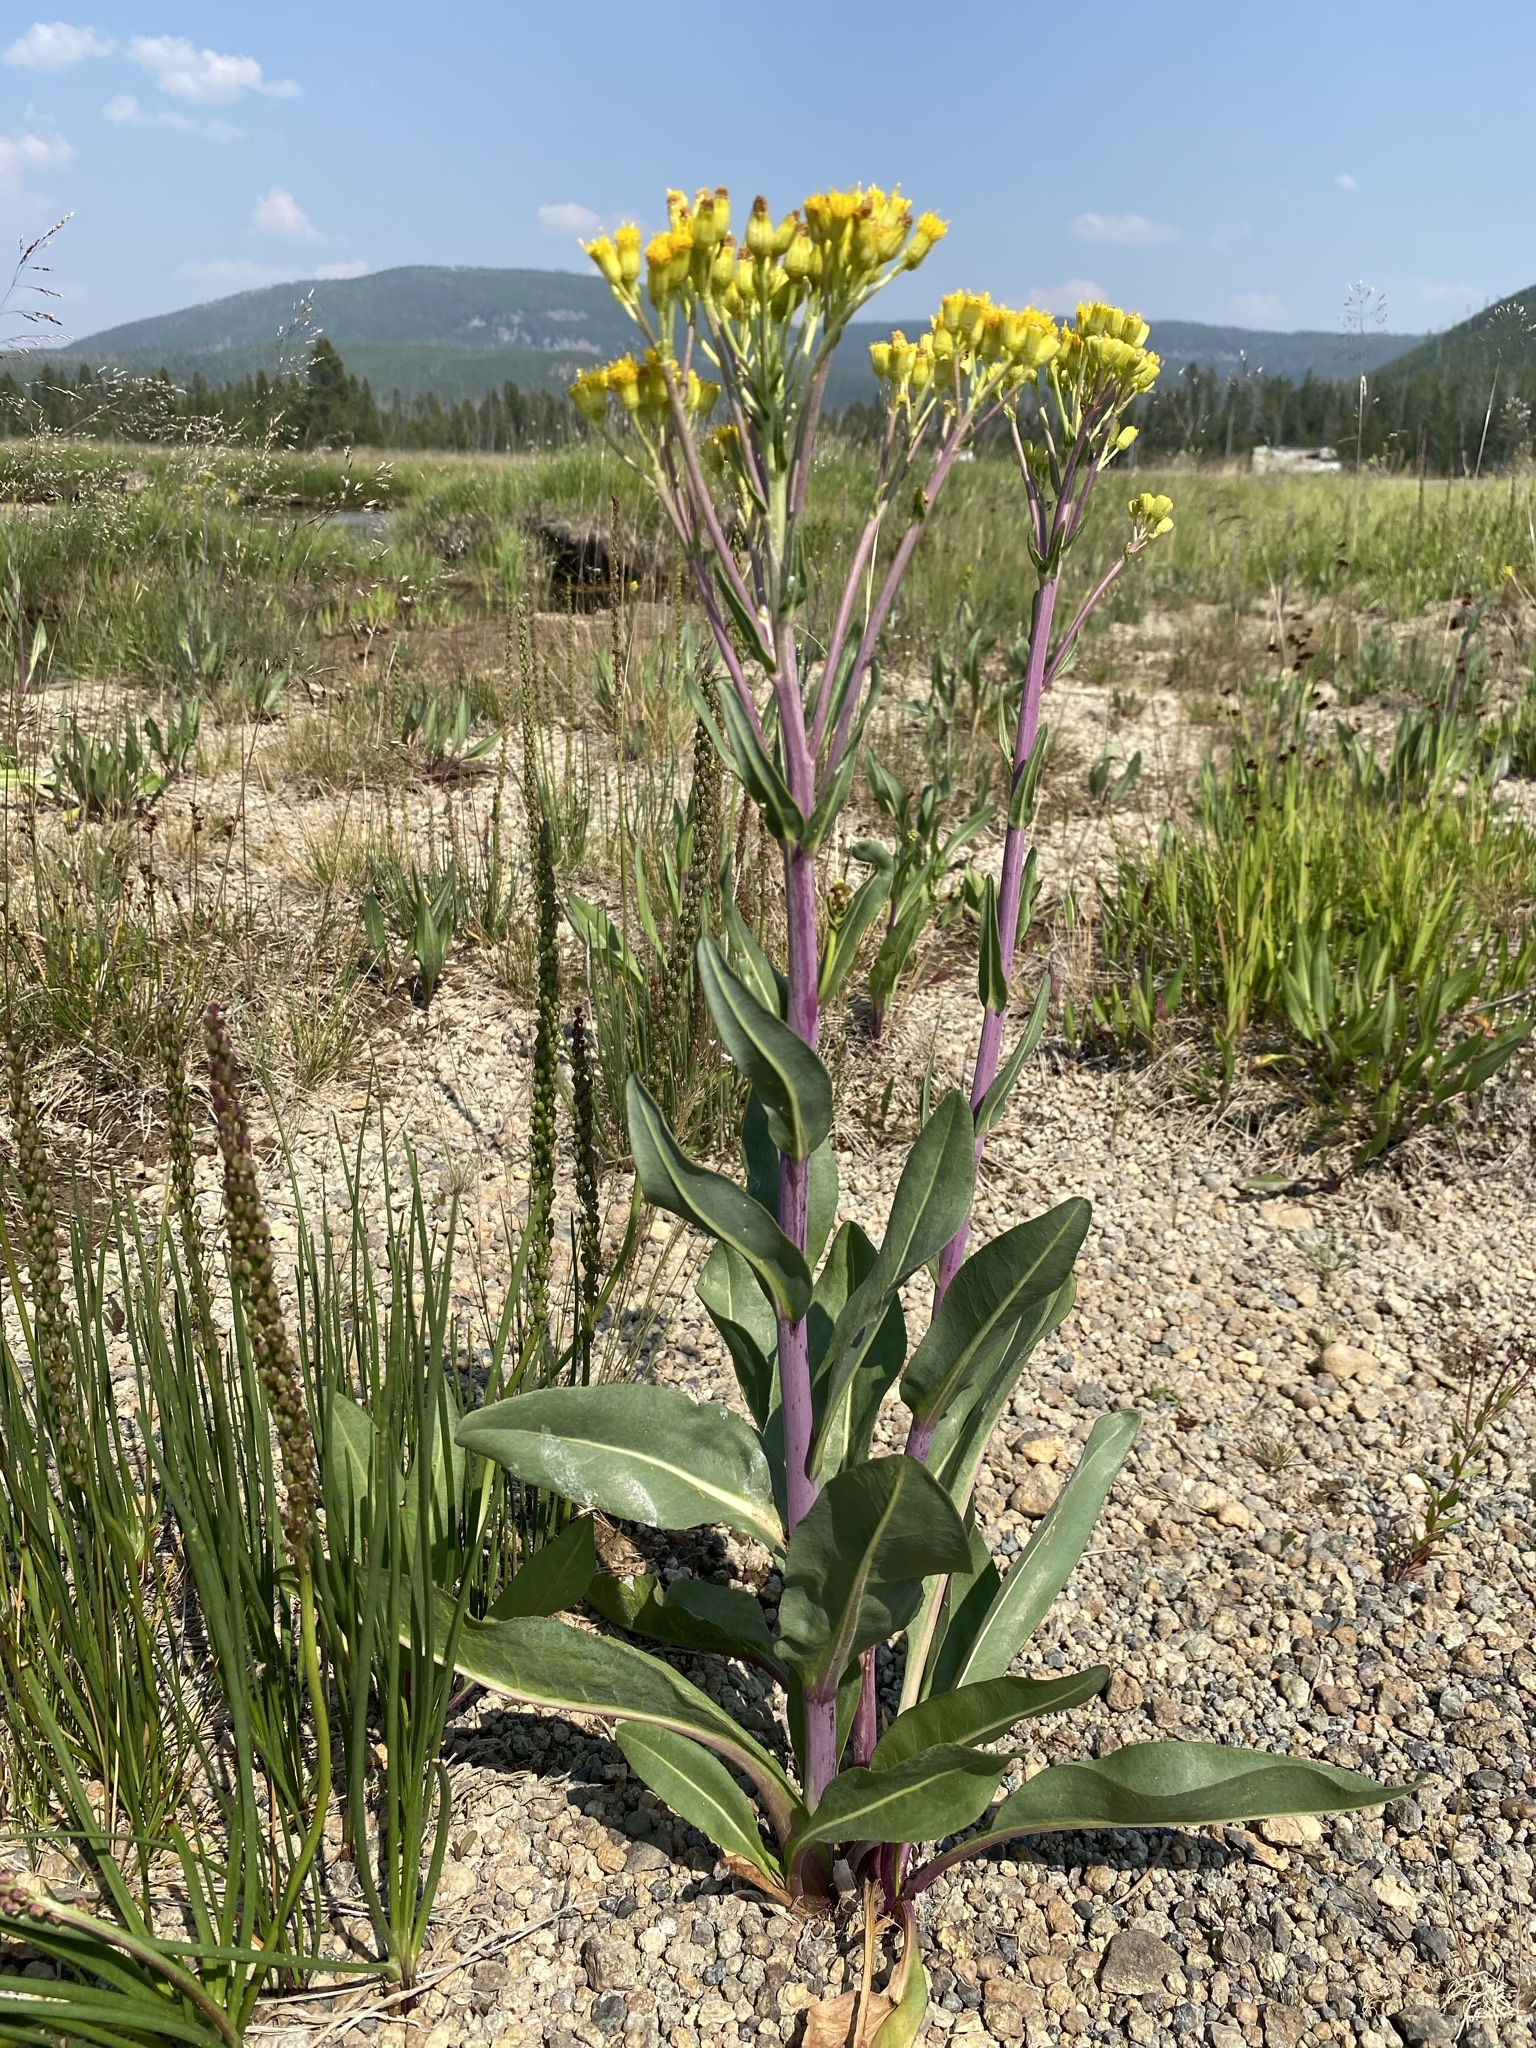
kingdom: Plantae
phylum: Tracheophyta
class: Magnoliopsida
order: Asterales
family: Asteraceae
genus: Senecio
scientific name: Senecio hydrophilus
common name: Water ragwort
